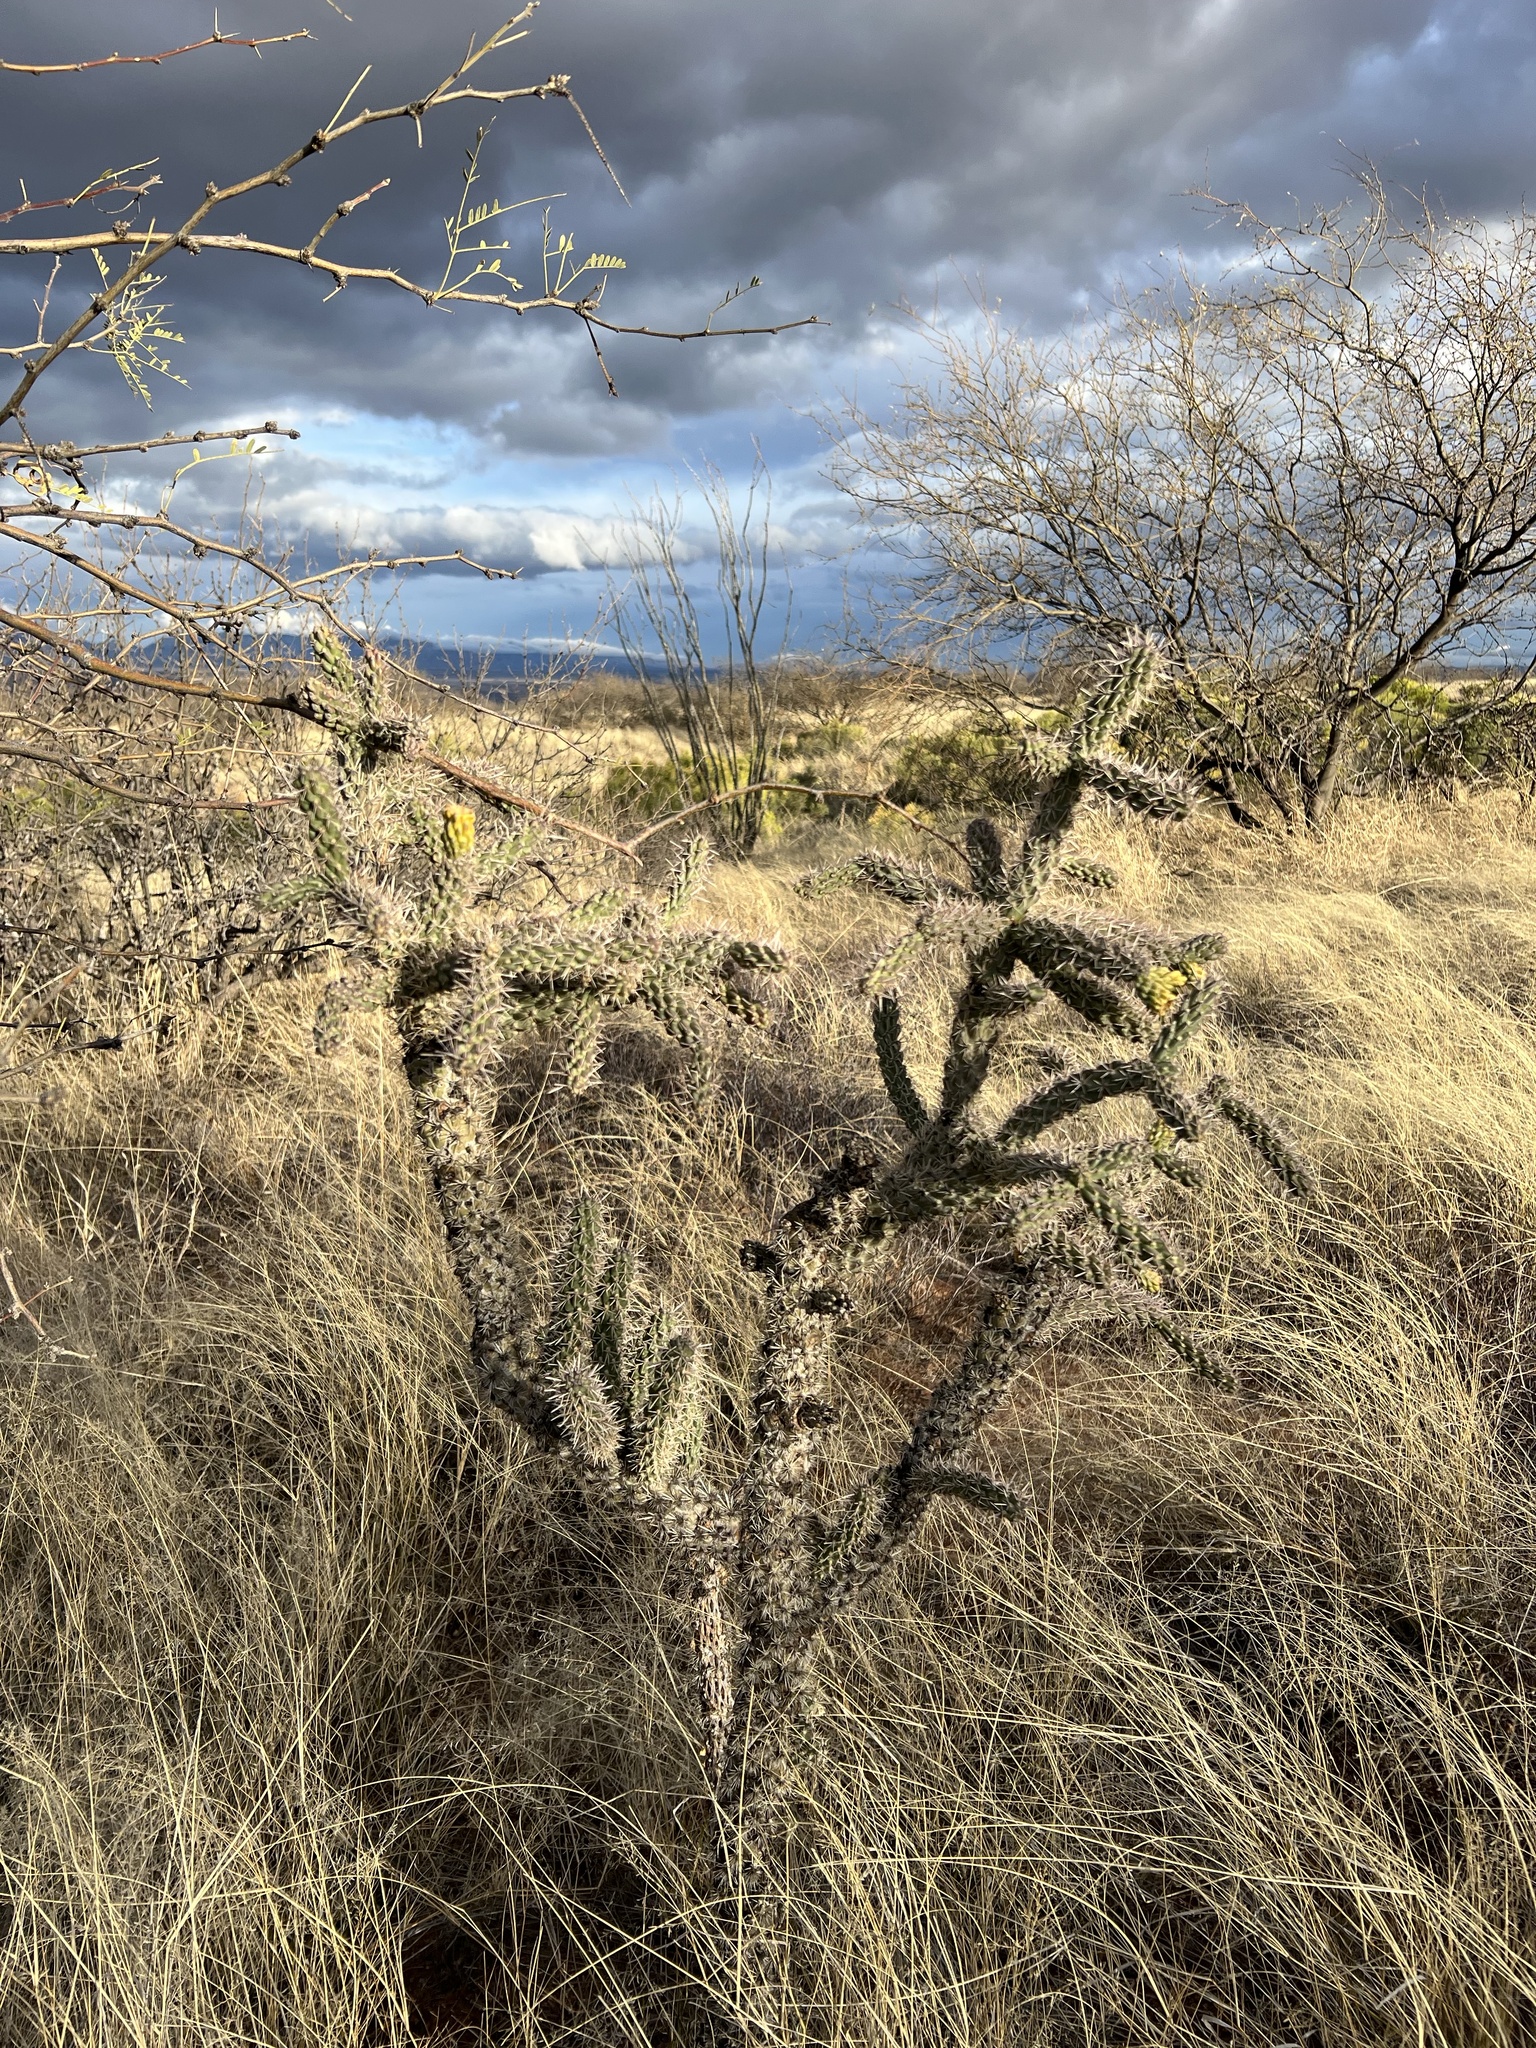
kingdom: Plantae
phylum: Tracheophyta
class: Magnoliopsida
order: Caryophyllales
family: Cactaceae
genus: Cylindropuntia
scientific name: Cylindropuntia imbricata
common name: Candelabrum cactus
